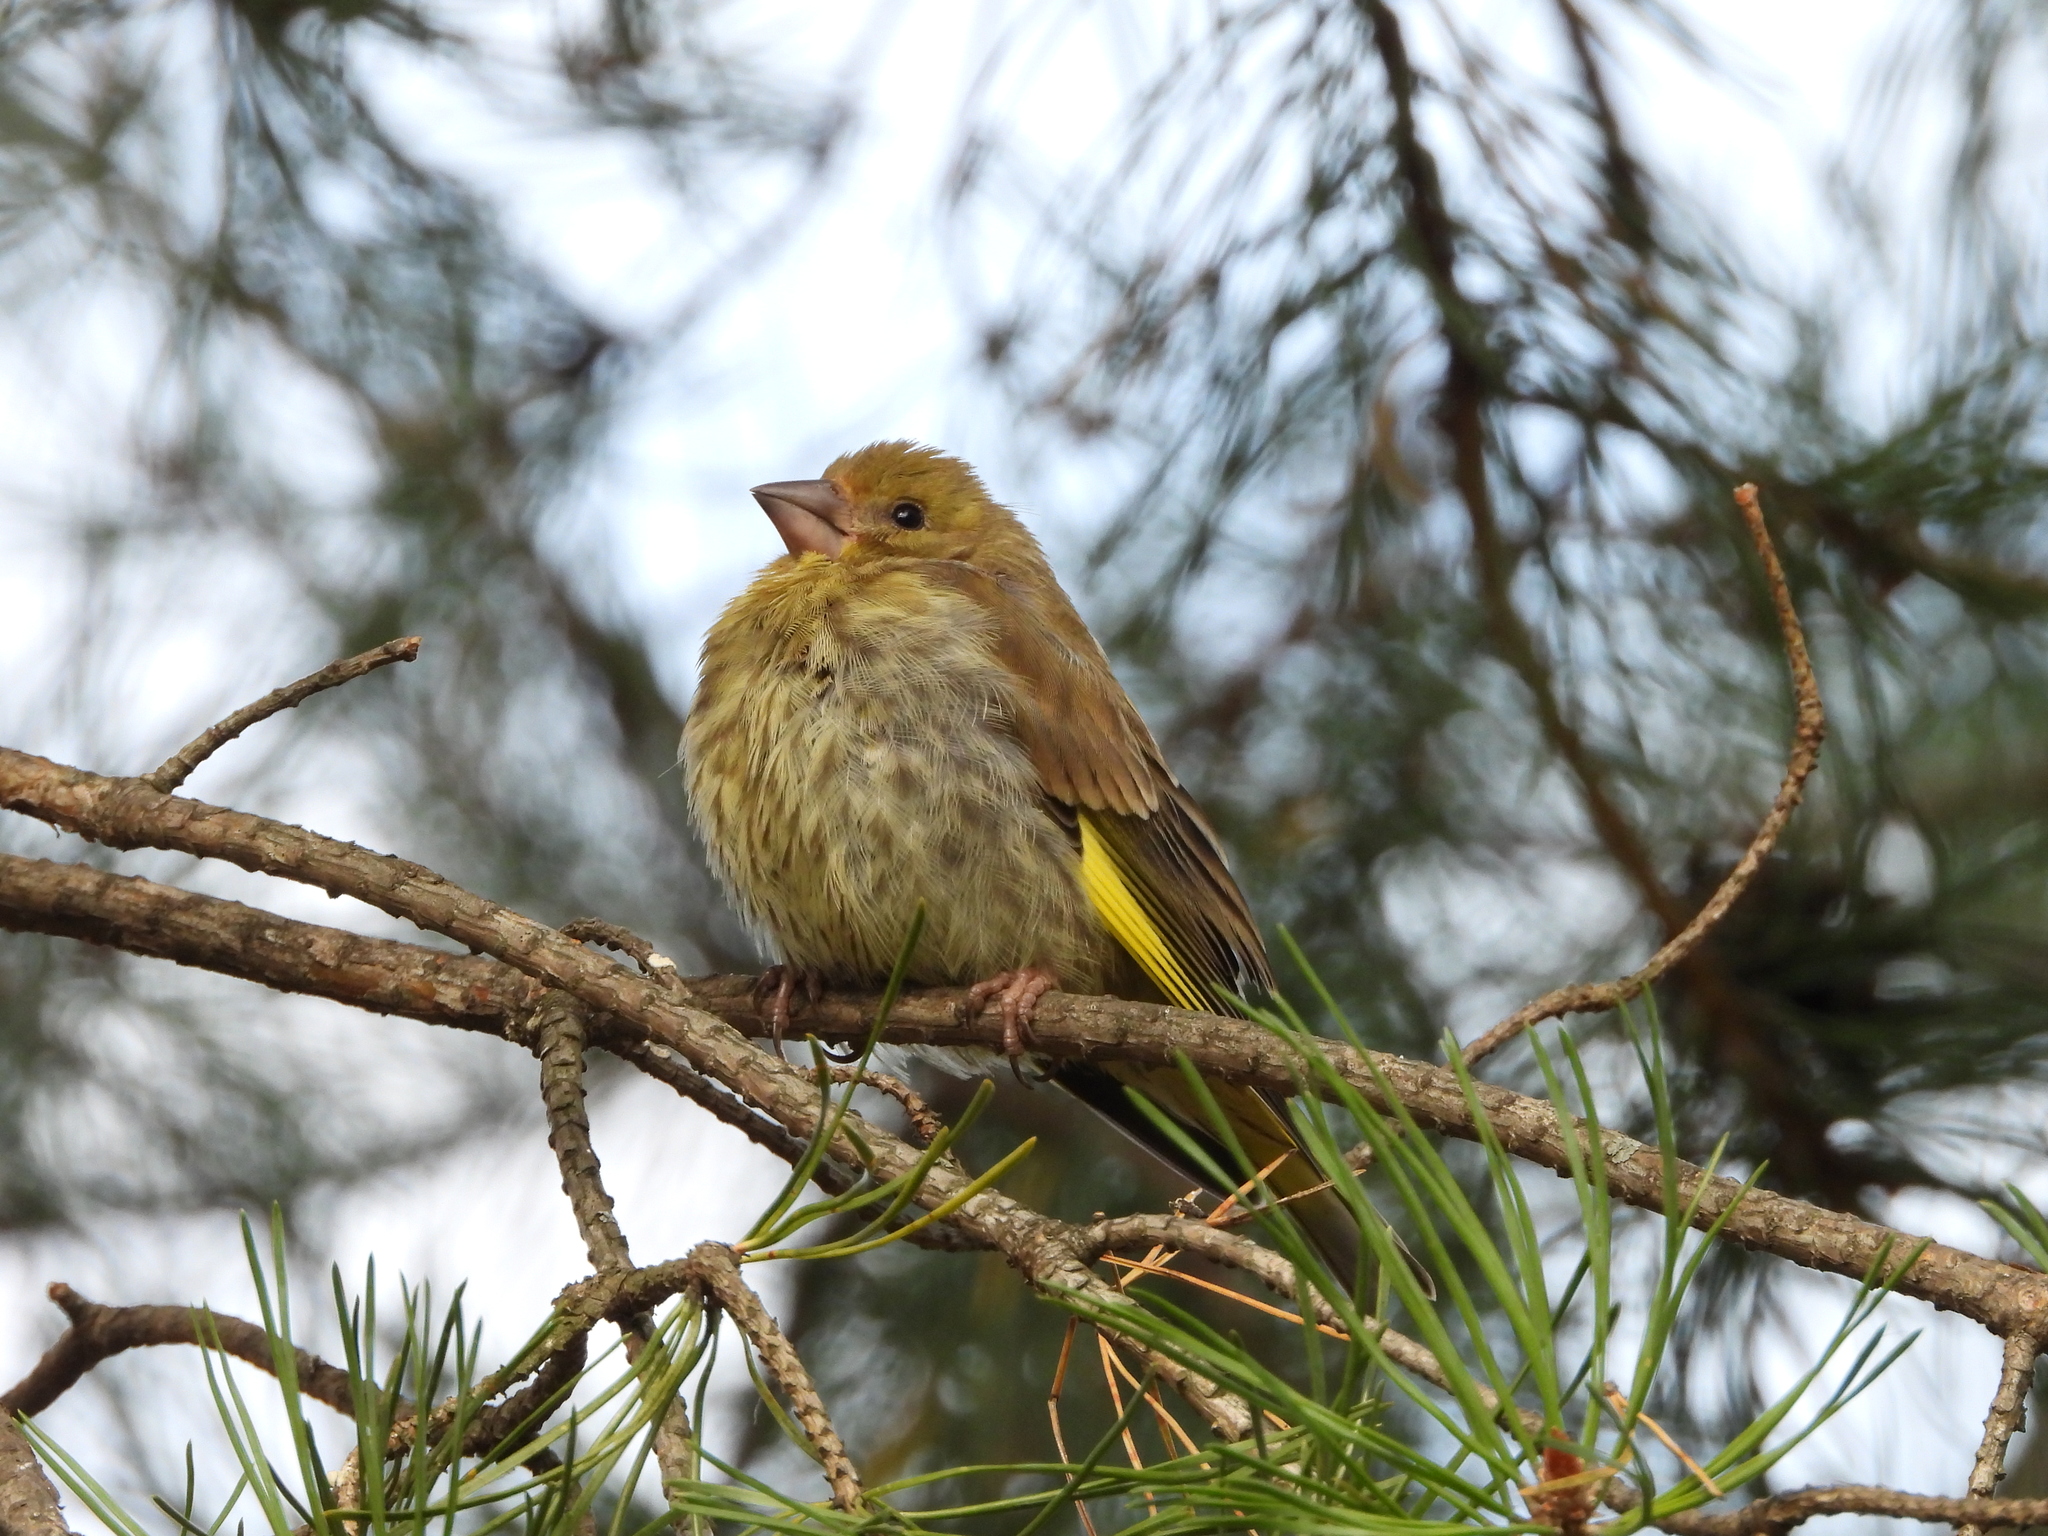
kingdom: Plantae
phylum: Tracheophyta
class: Liliopsida
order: Poales
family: Poaceae
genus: Chloris
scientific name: Chloris chloris
